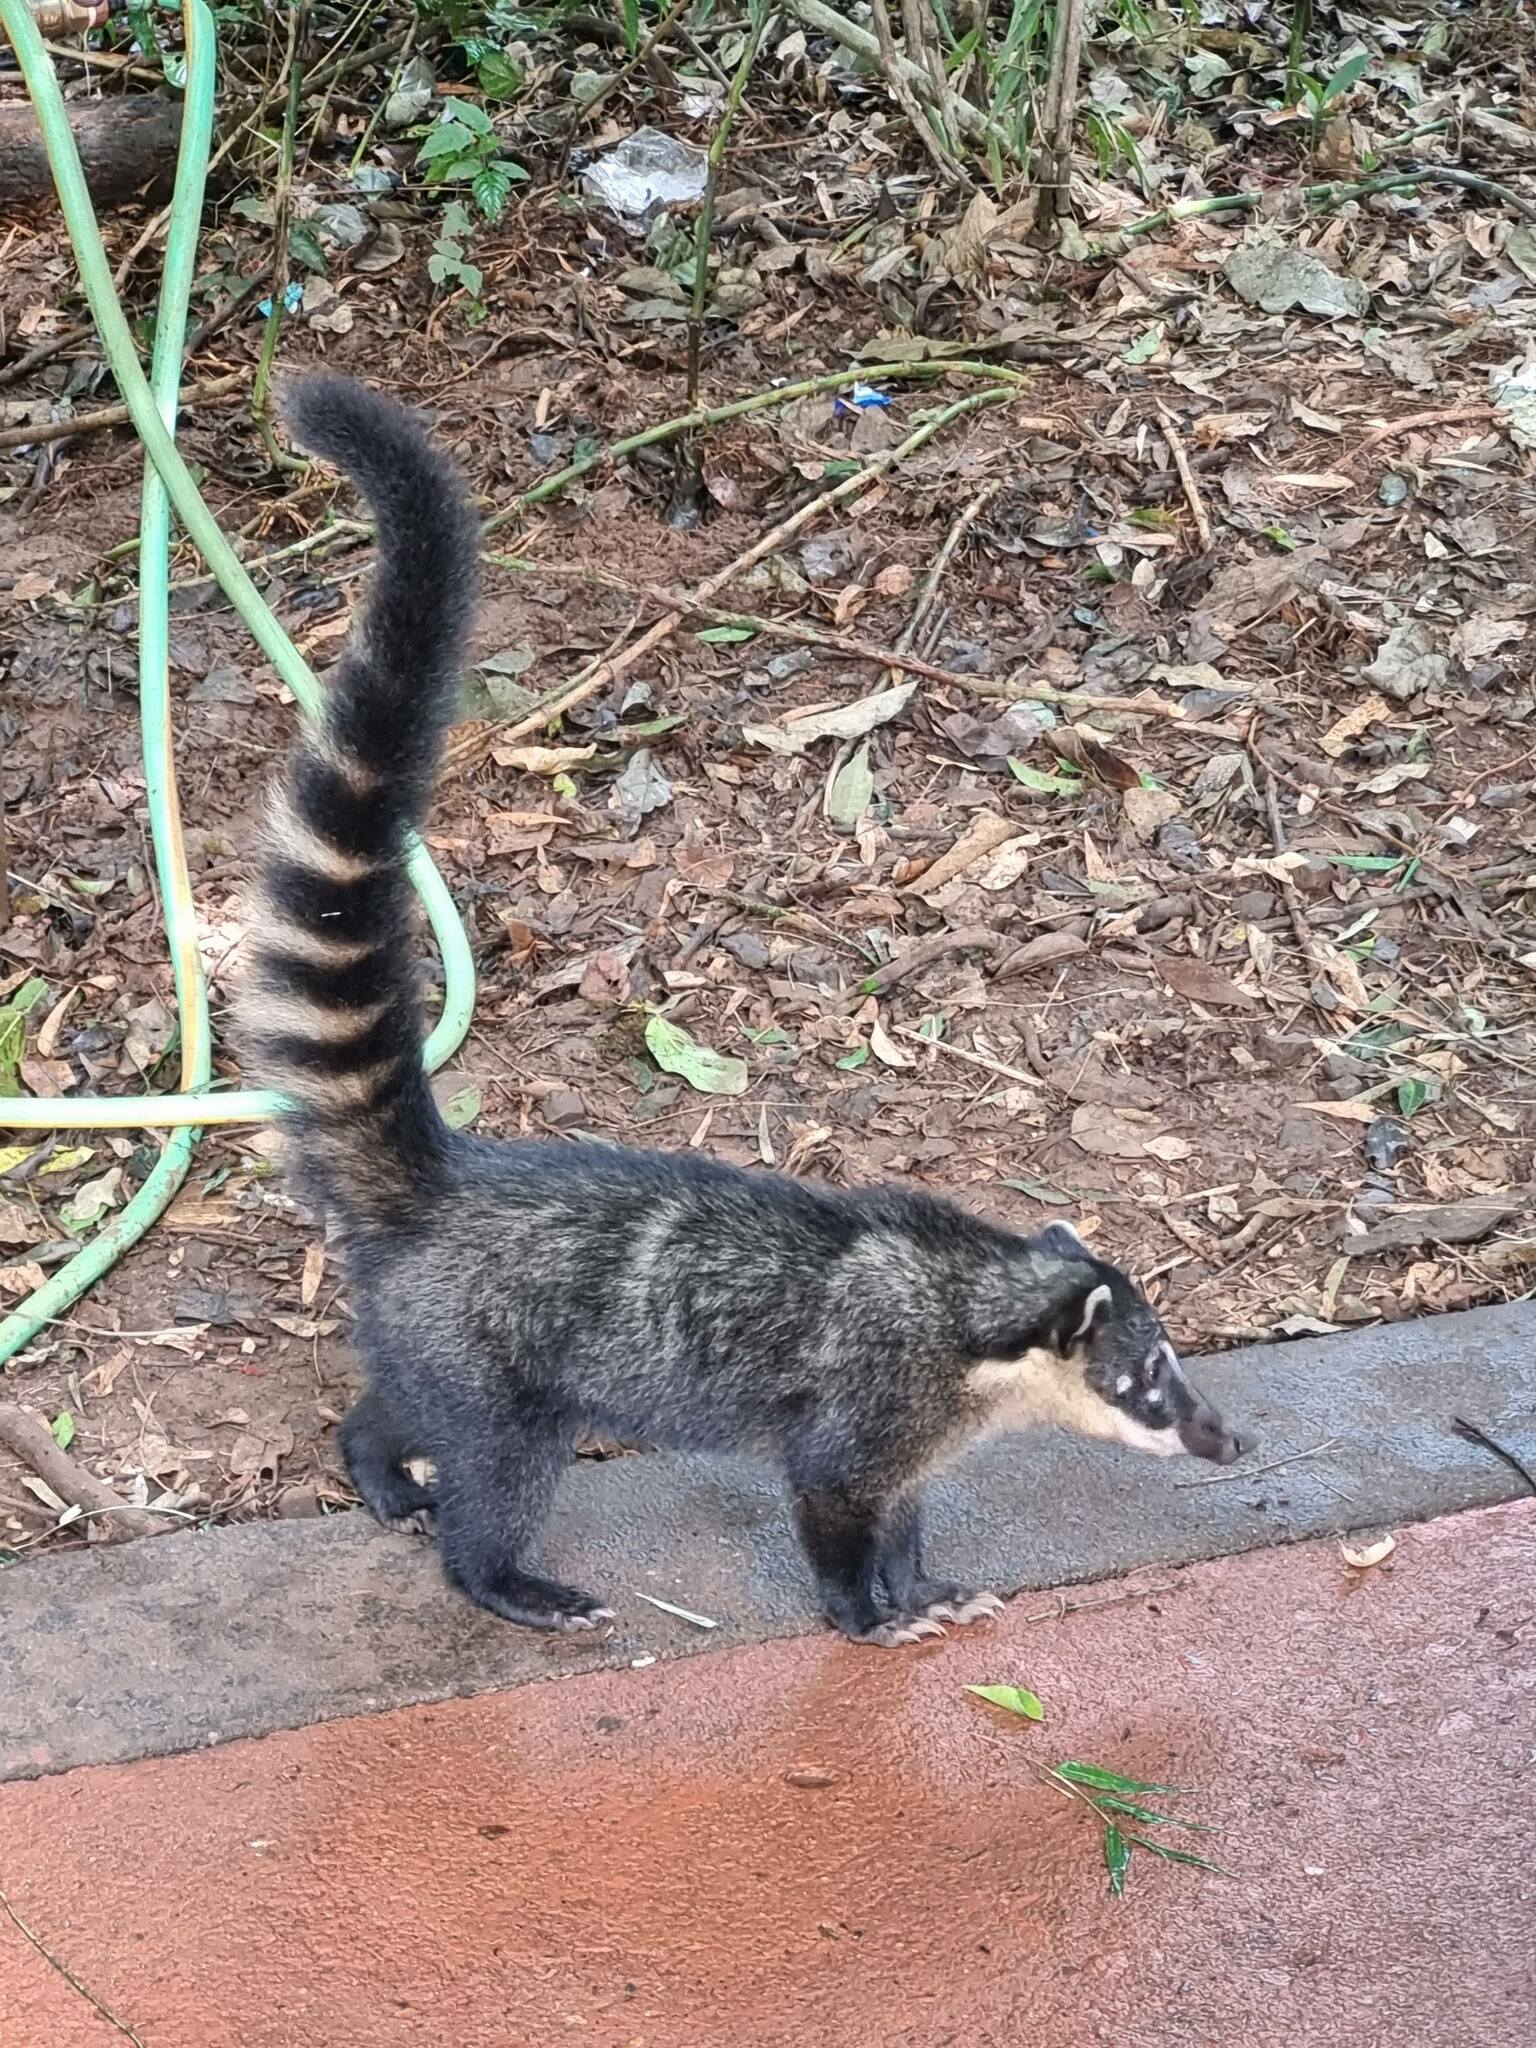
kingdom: Animalia
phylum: Chordata
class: Mammalia
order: Carnivora
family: Procyonidae
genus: Nasua
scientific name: Nasua nasua
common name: South american coati
